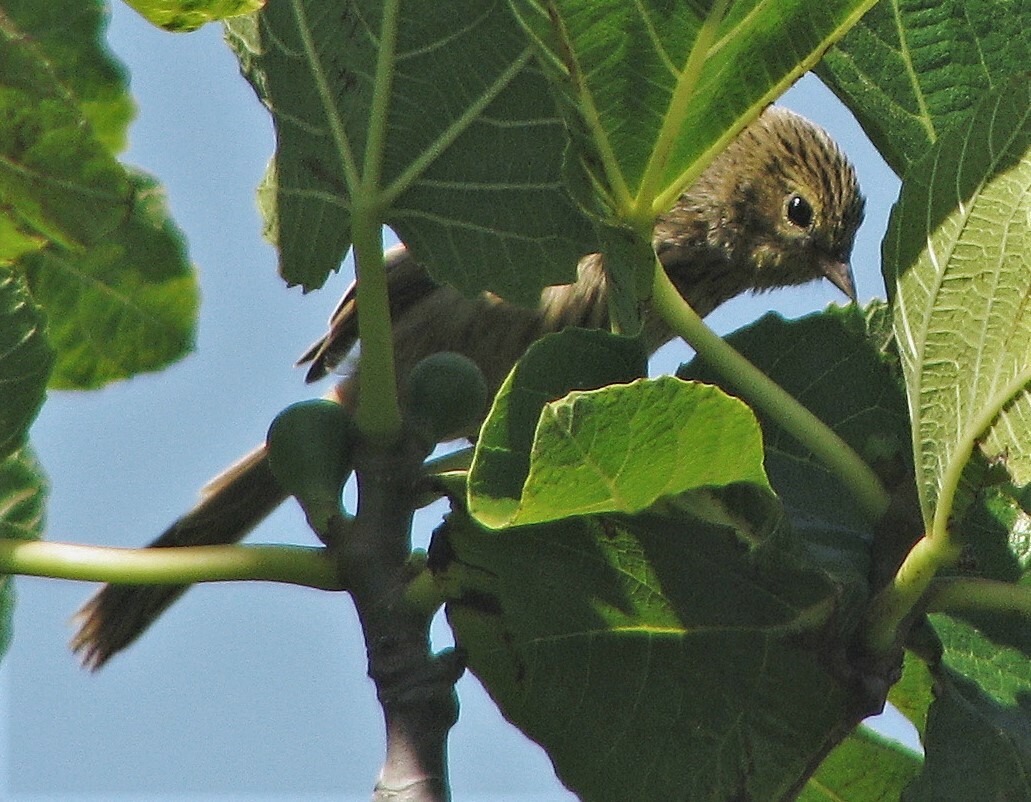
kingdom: Animalia
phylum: Chordata
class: Aves
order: Passeriformes
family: Thraupidae
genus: Donacospiza
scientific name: Donacospiza albifrons
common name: Long-tailed reed finch
